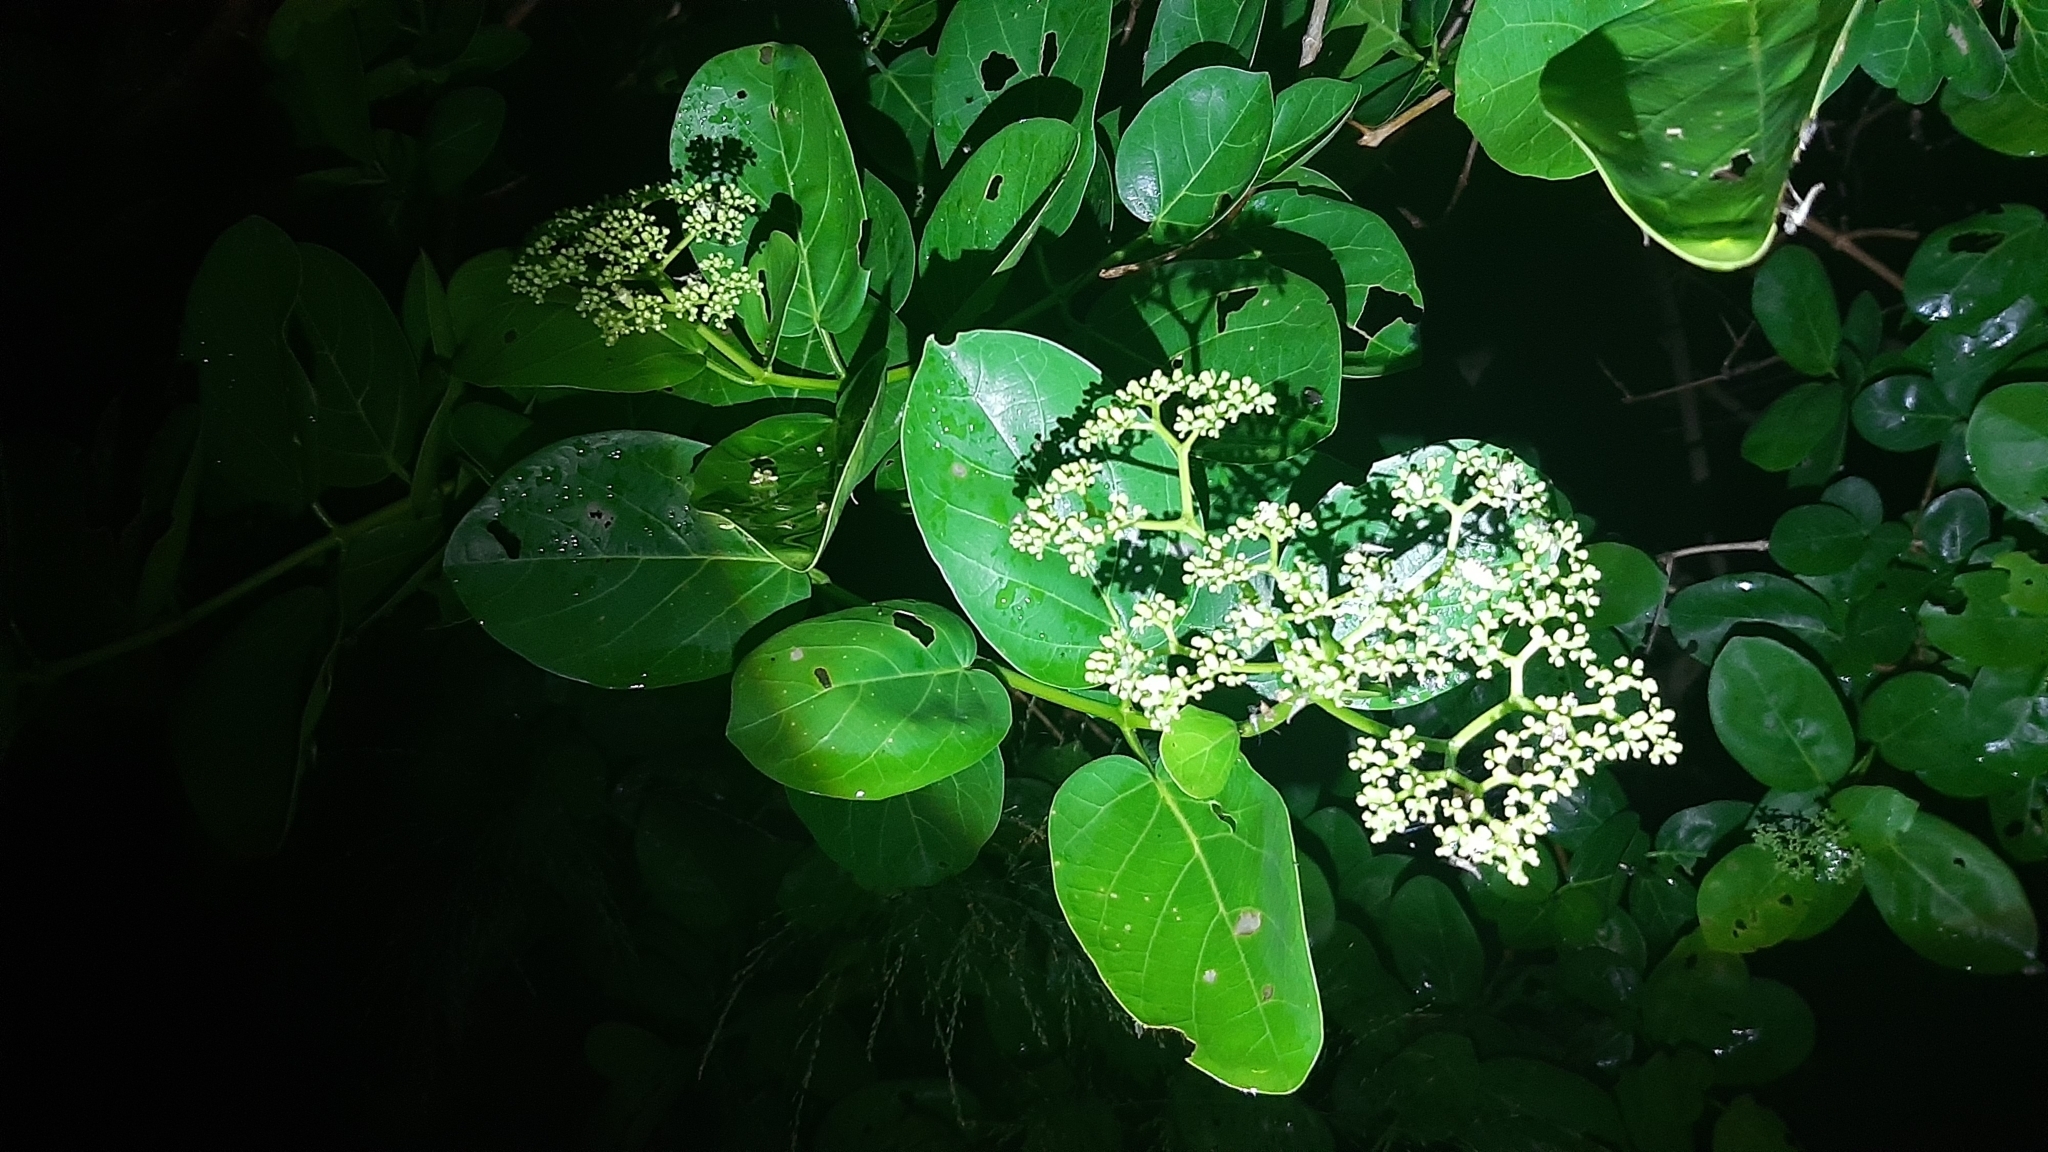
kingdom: Plantae
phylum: Tracheophyta
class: Magnoliopsida
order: Lamiales
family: Lamiaceae
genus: Premna
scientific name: Premna serratifolia
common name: Bastard guelder
